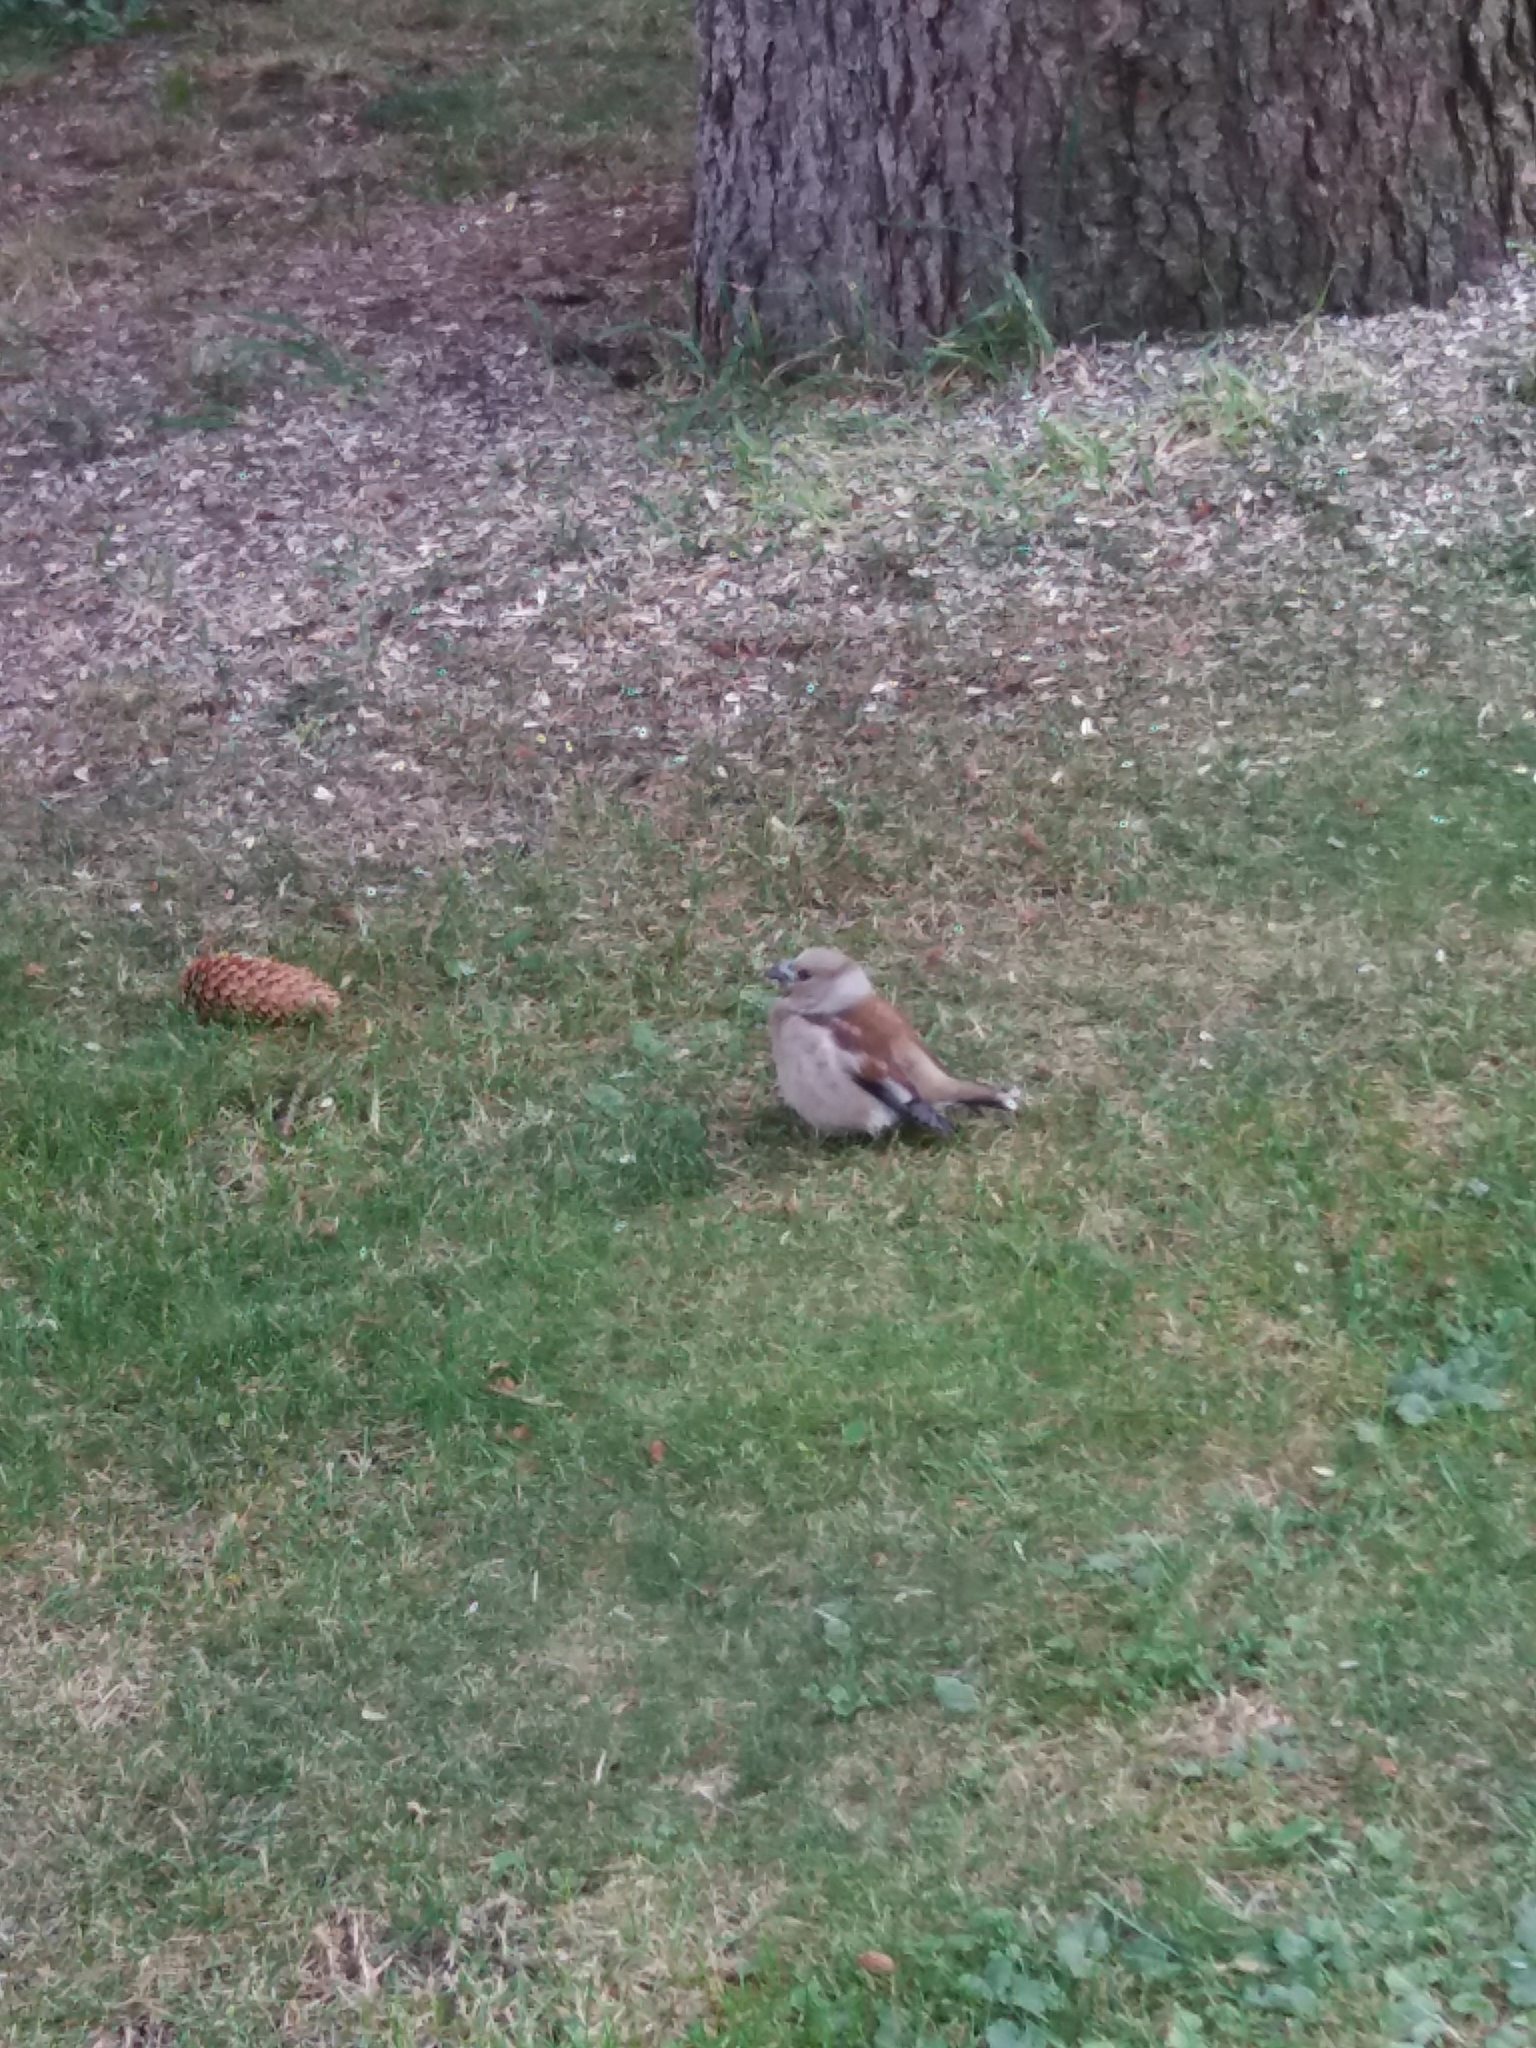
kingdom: Animalia
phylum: Chordata
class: Aves
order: Passeriformes
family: Fringillidae
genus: Coccothraustes
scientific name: Coccothraustes coccothraustes
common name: Hawfinch
